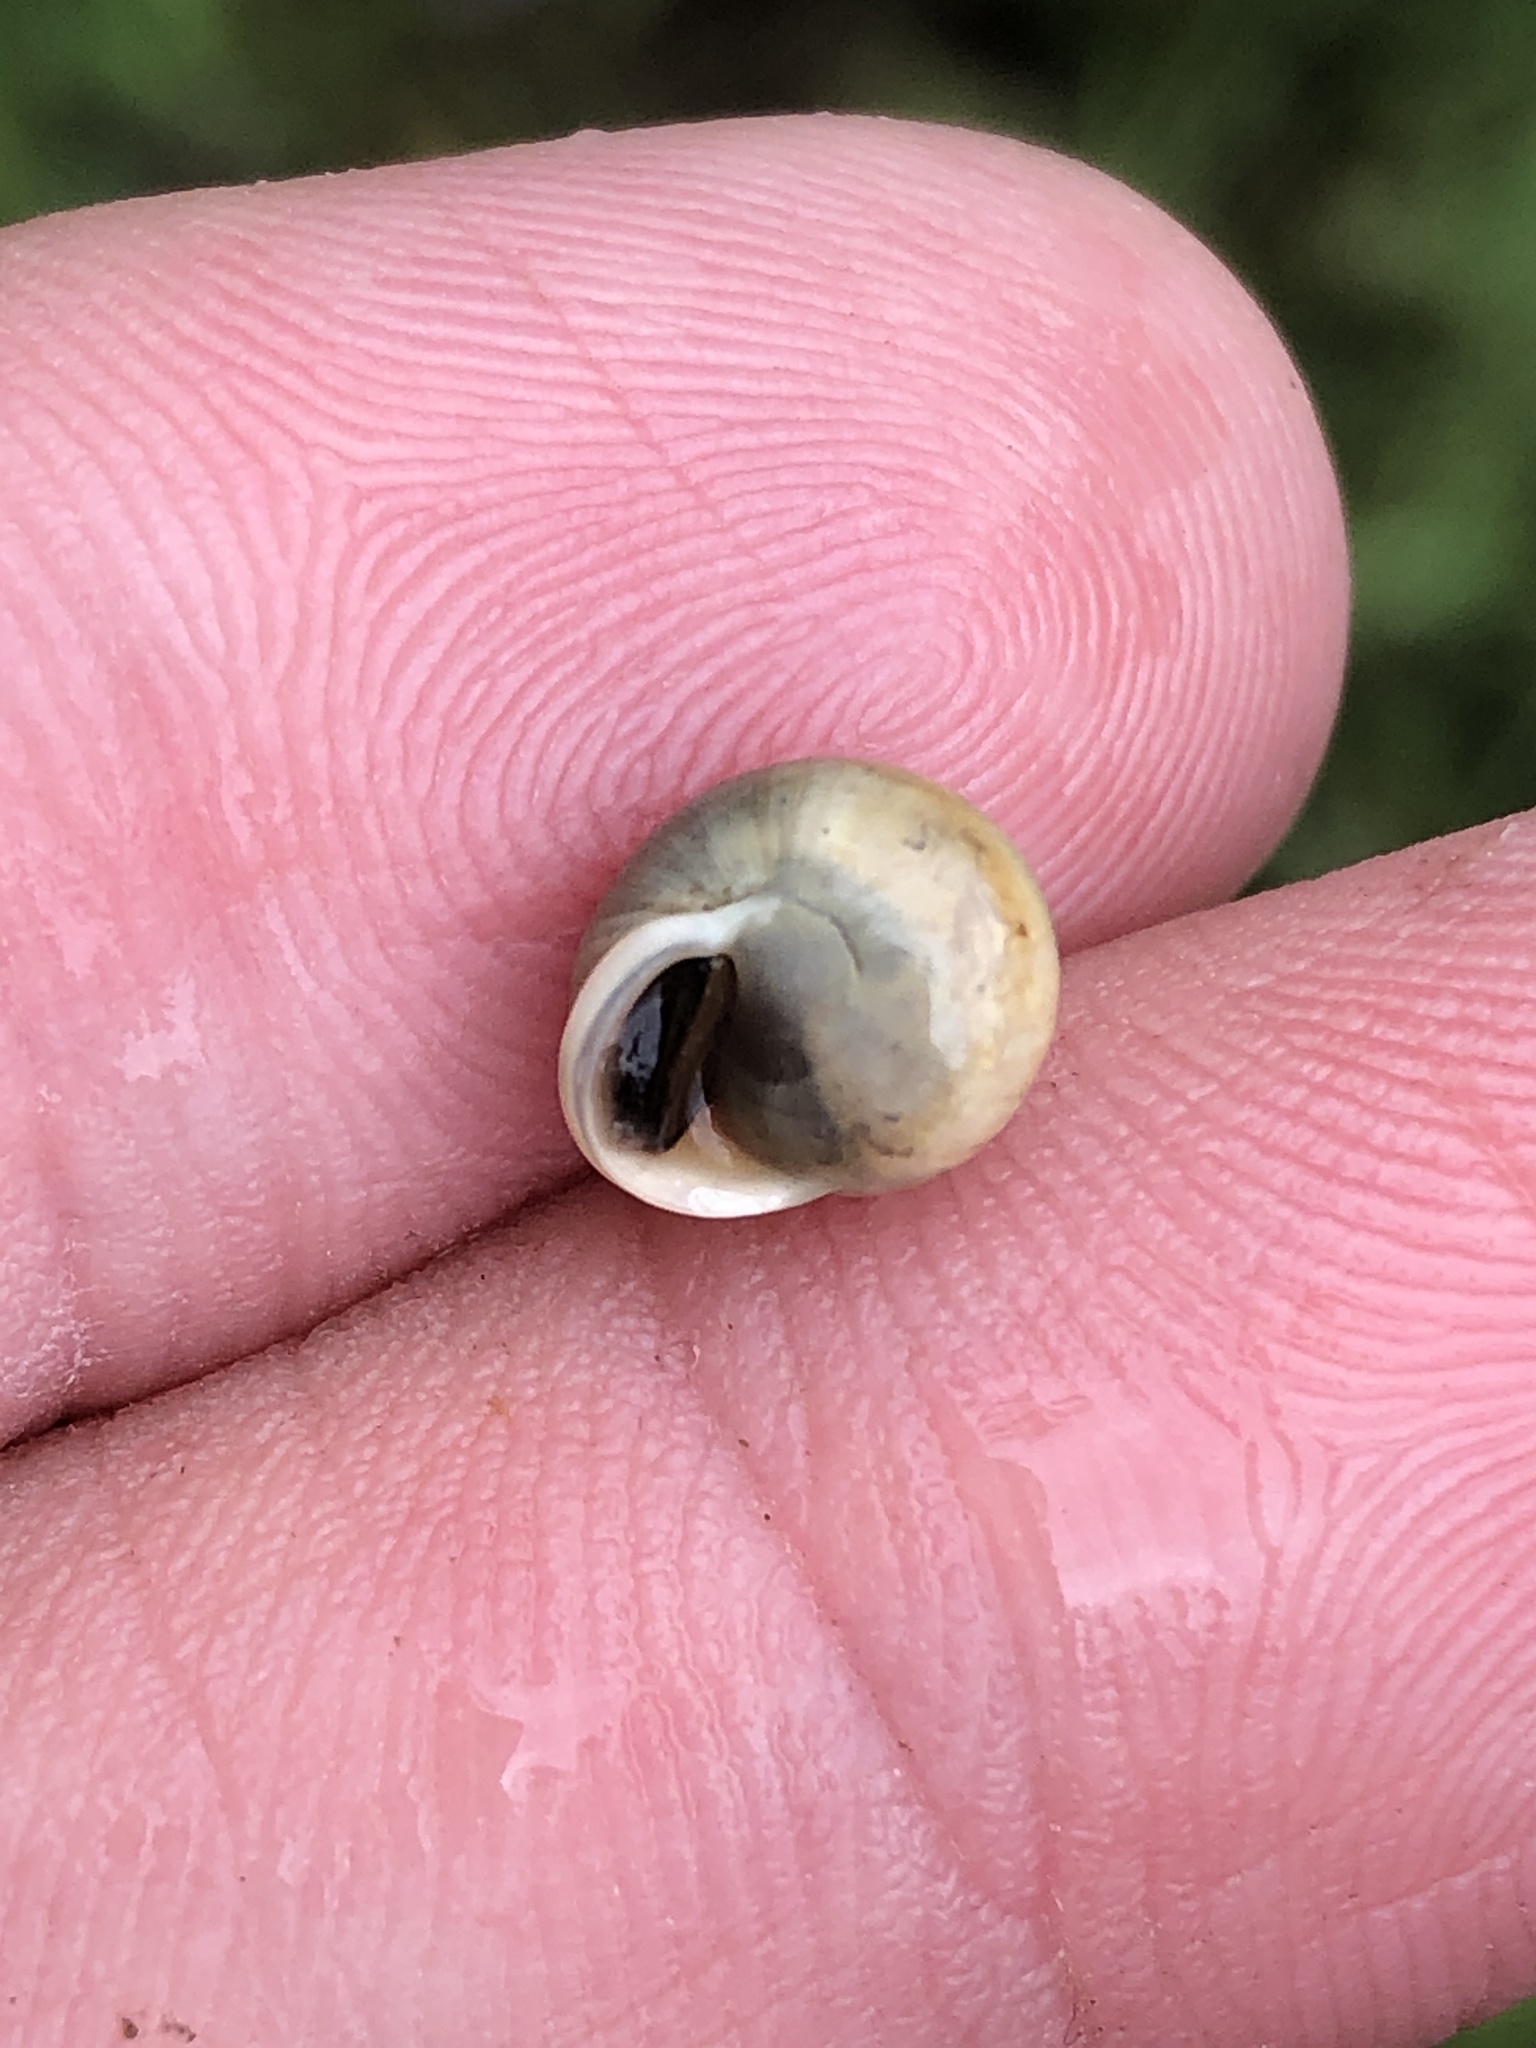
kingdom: Animalia
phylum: Mollusca
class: Gastropoda
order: Cycloneritida
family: Helicinidae
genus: Helicina
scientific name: Helicina orbiculata
